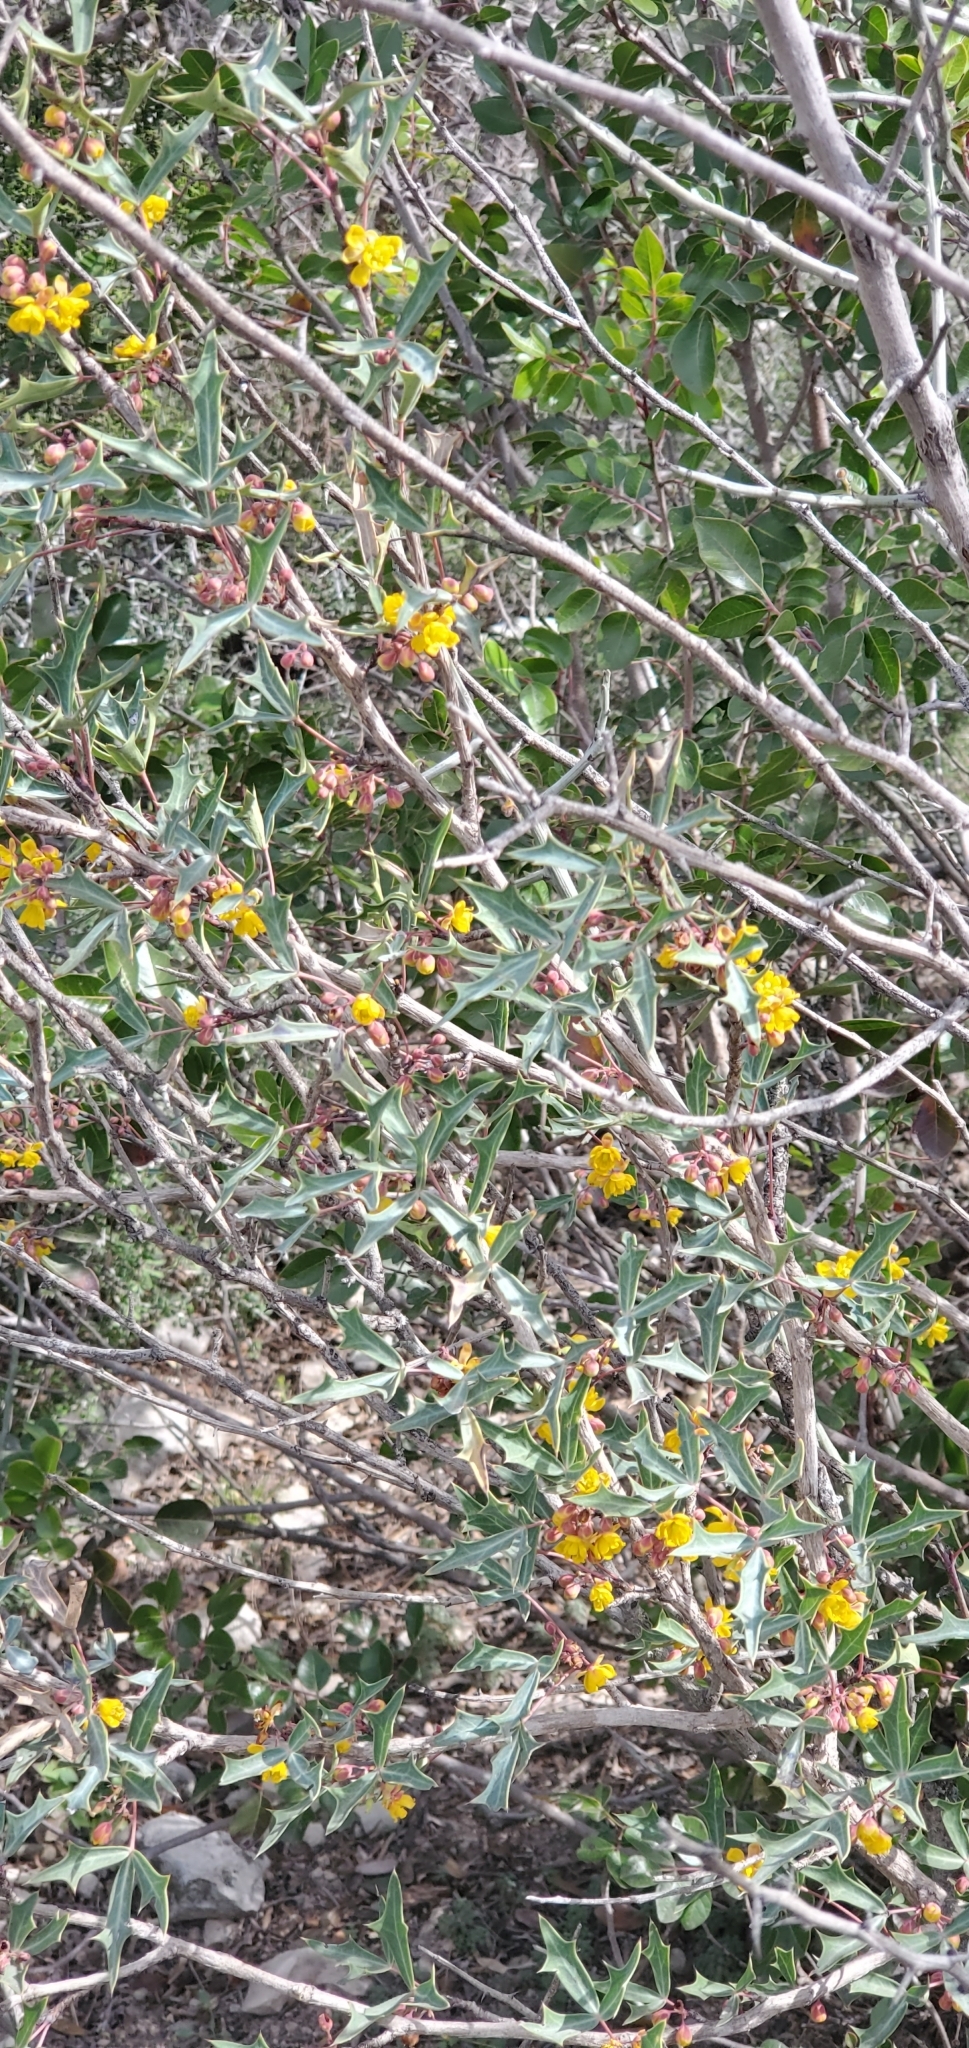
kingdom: Plantae
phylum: Tracheophyta
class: Magnoliopsida
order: Ranunculales
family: Berberidaceae
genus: Alloberberis
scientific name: Alloberberis trifoliolata
